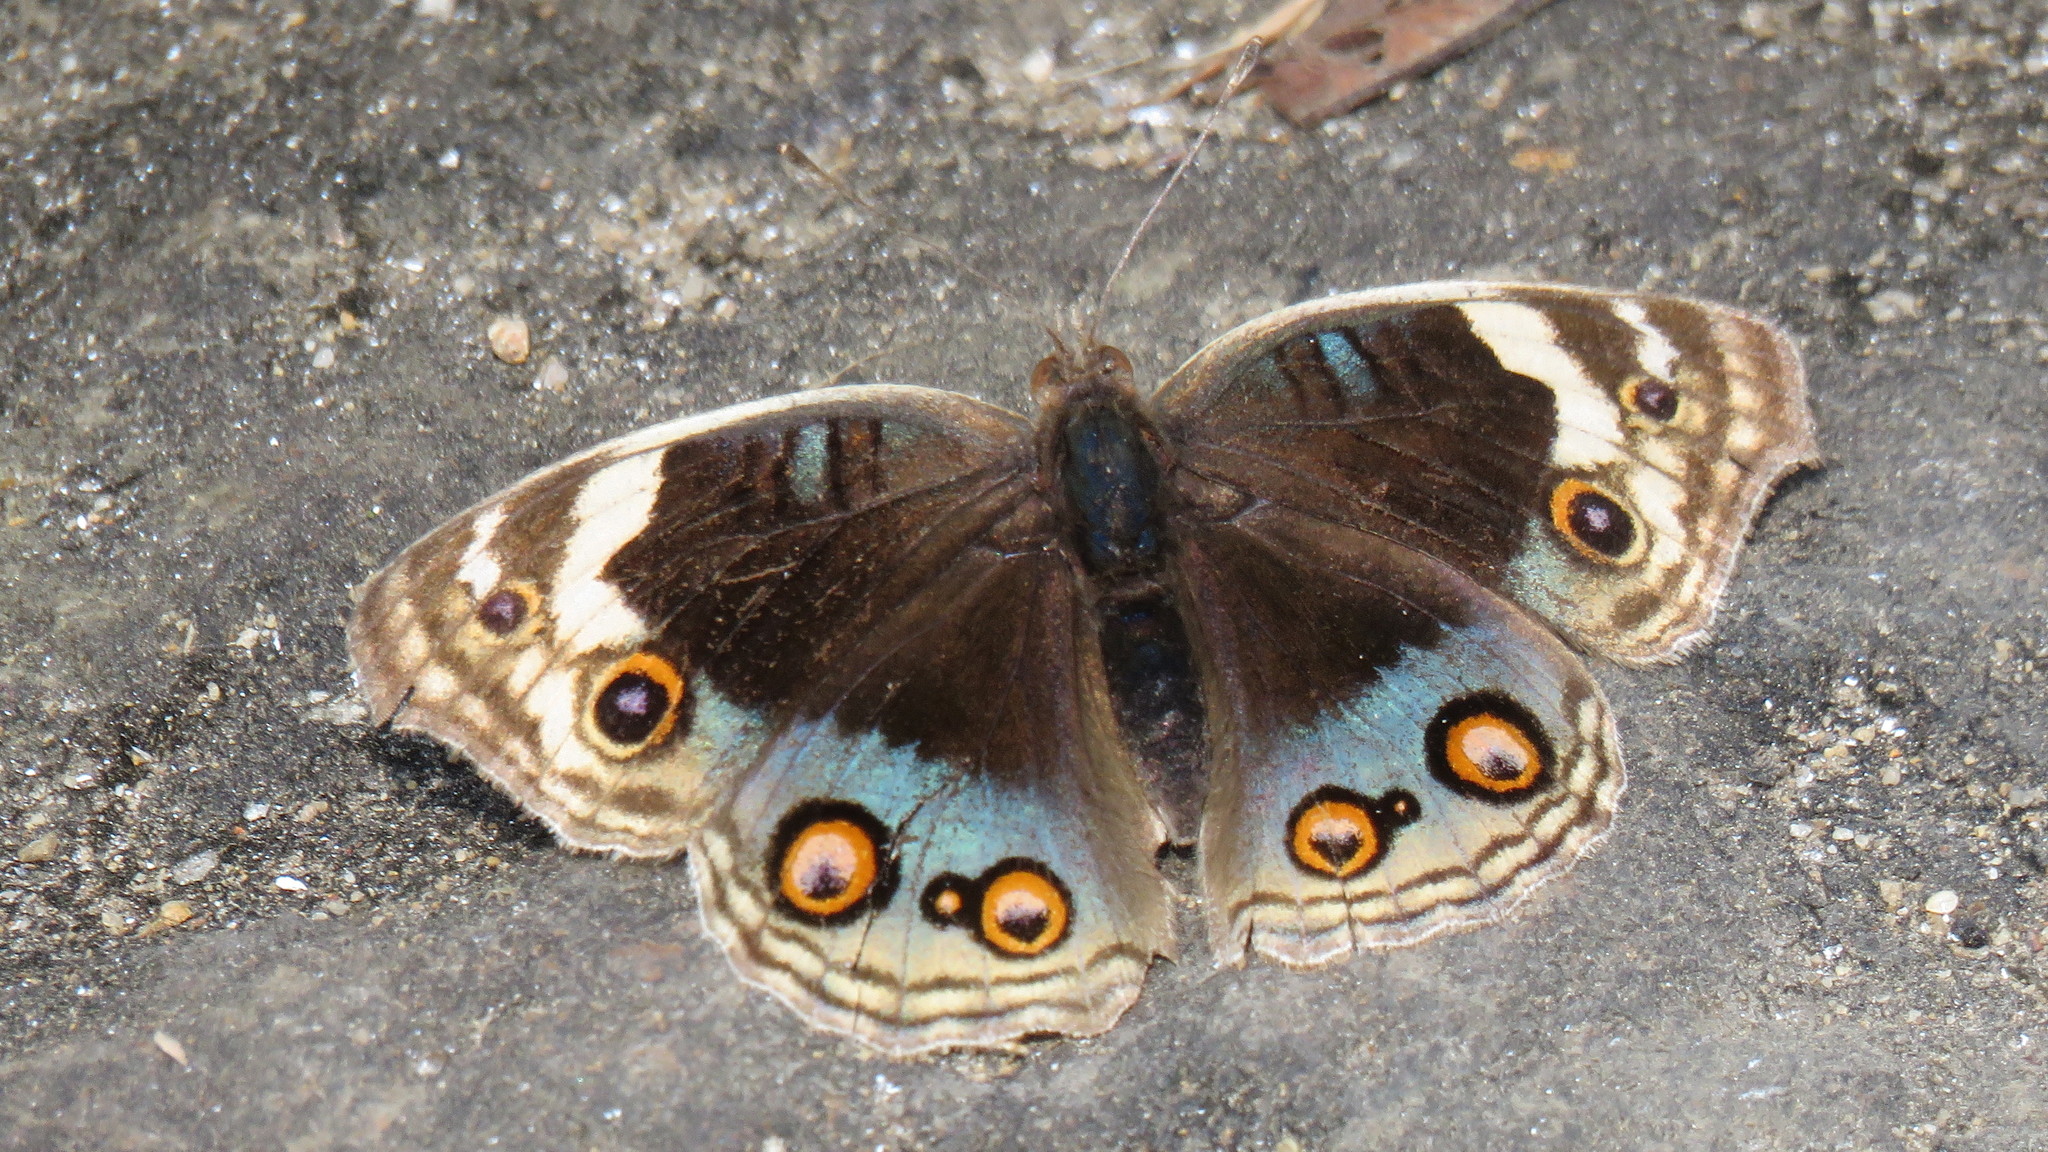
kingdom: Animalia
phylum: Arthropoda
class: Insecta
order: Lepidoptera
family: Nymphalidae
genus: Junonia
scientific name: Junonia orithya
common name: Blue pansy
